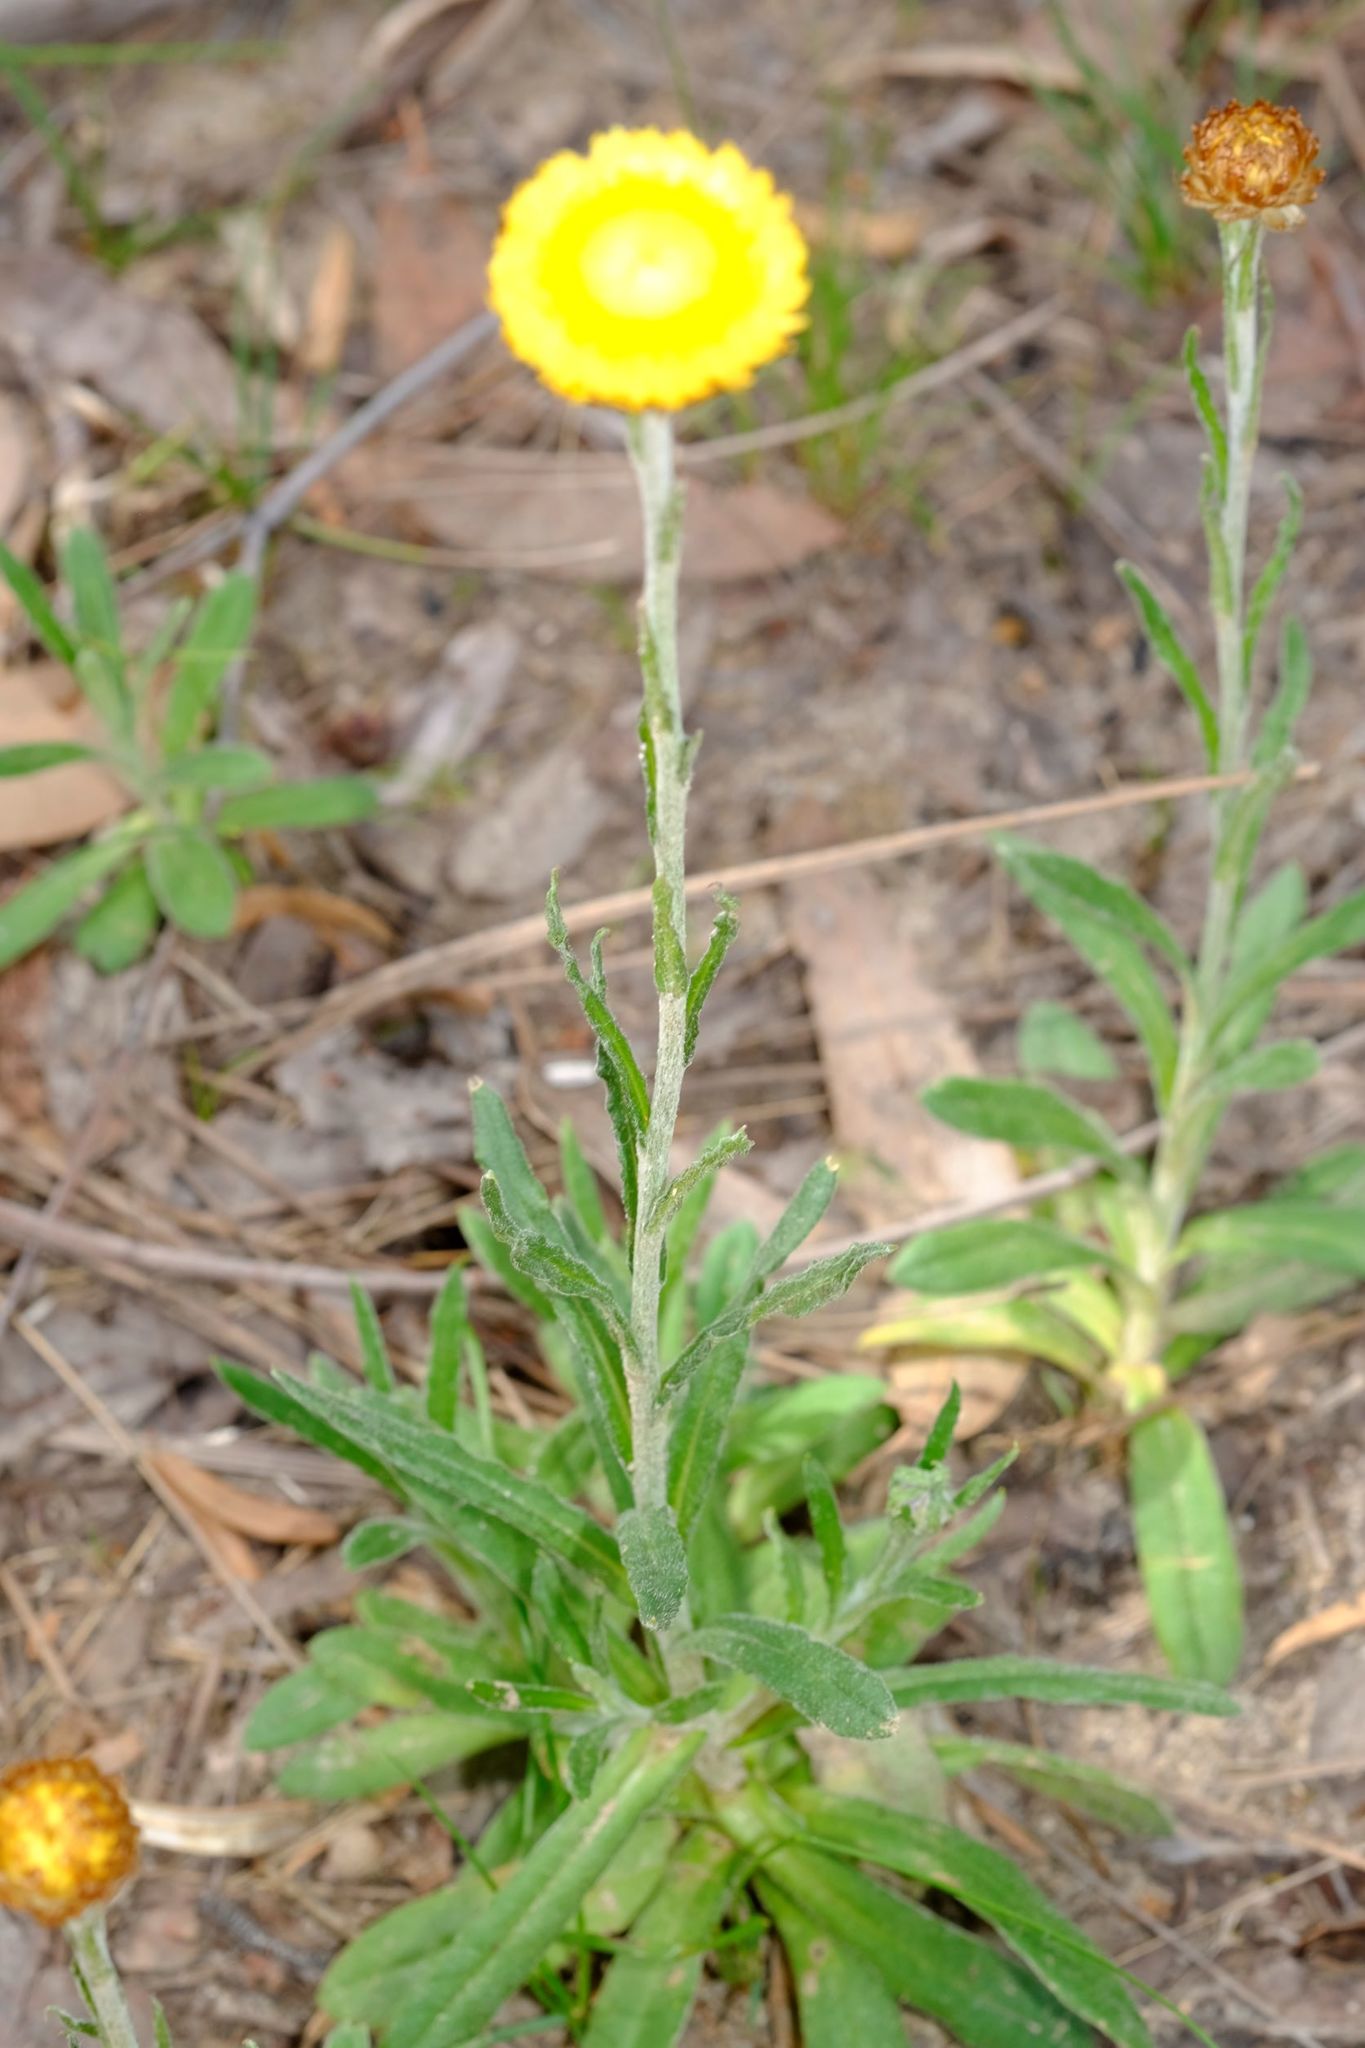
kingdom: Plantae
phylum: Tracheophyta
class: Magnoliopsida
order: Asterales
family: Asteraceae
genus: Coronidium
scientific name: Coronidium scorpioides
